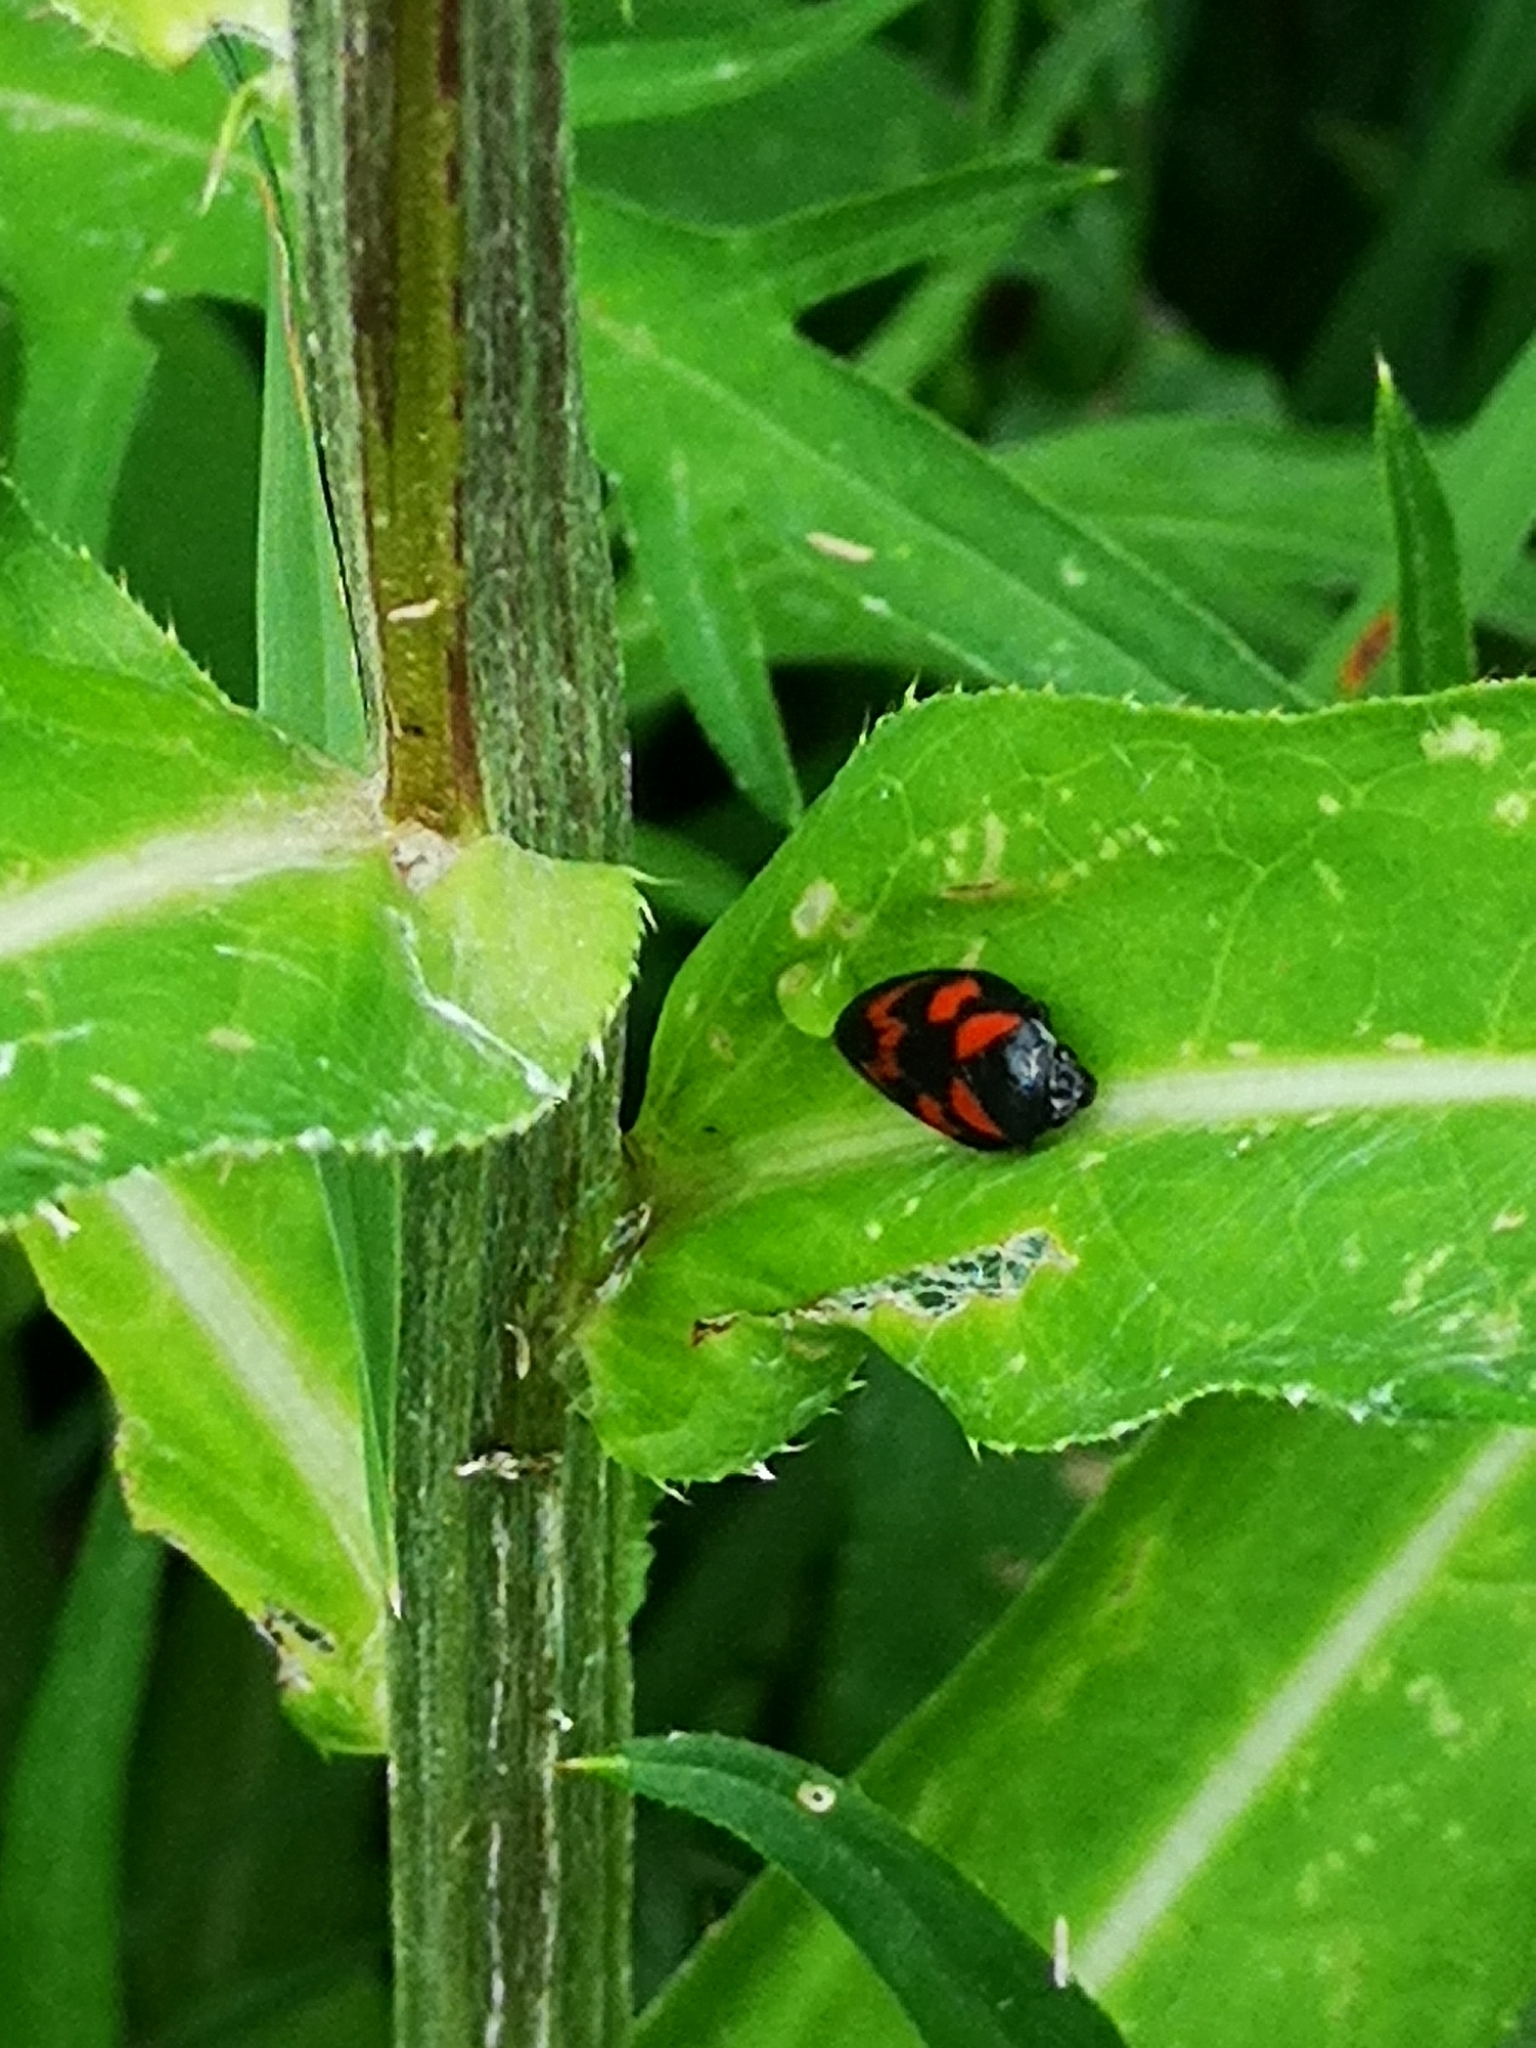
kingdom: Animalia
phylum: Arthropoda
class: Insecta
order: Hemiptera
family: Cercopidae
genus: Cercopis
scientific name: Cercopis vulnerata
